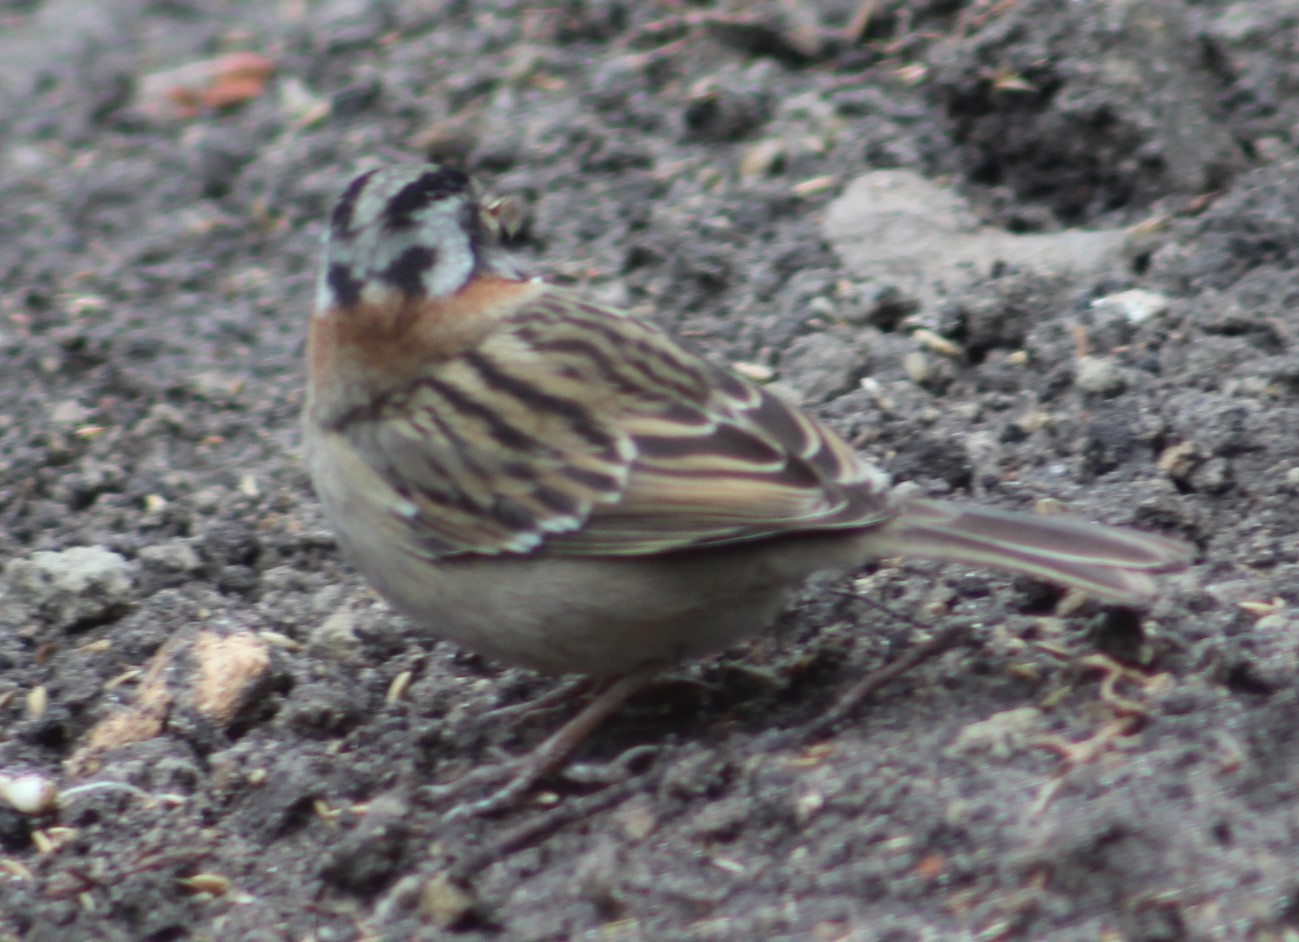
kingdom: Animalia
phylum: Chordata
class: Aves
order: Passeriformes
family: Passerellidae
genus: Zonotrichia
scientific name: Zonotrichia capensis
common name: Rufous-collared sparrow
